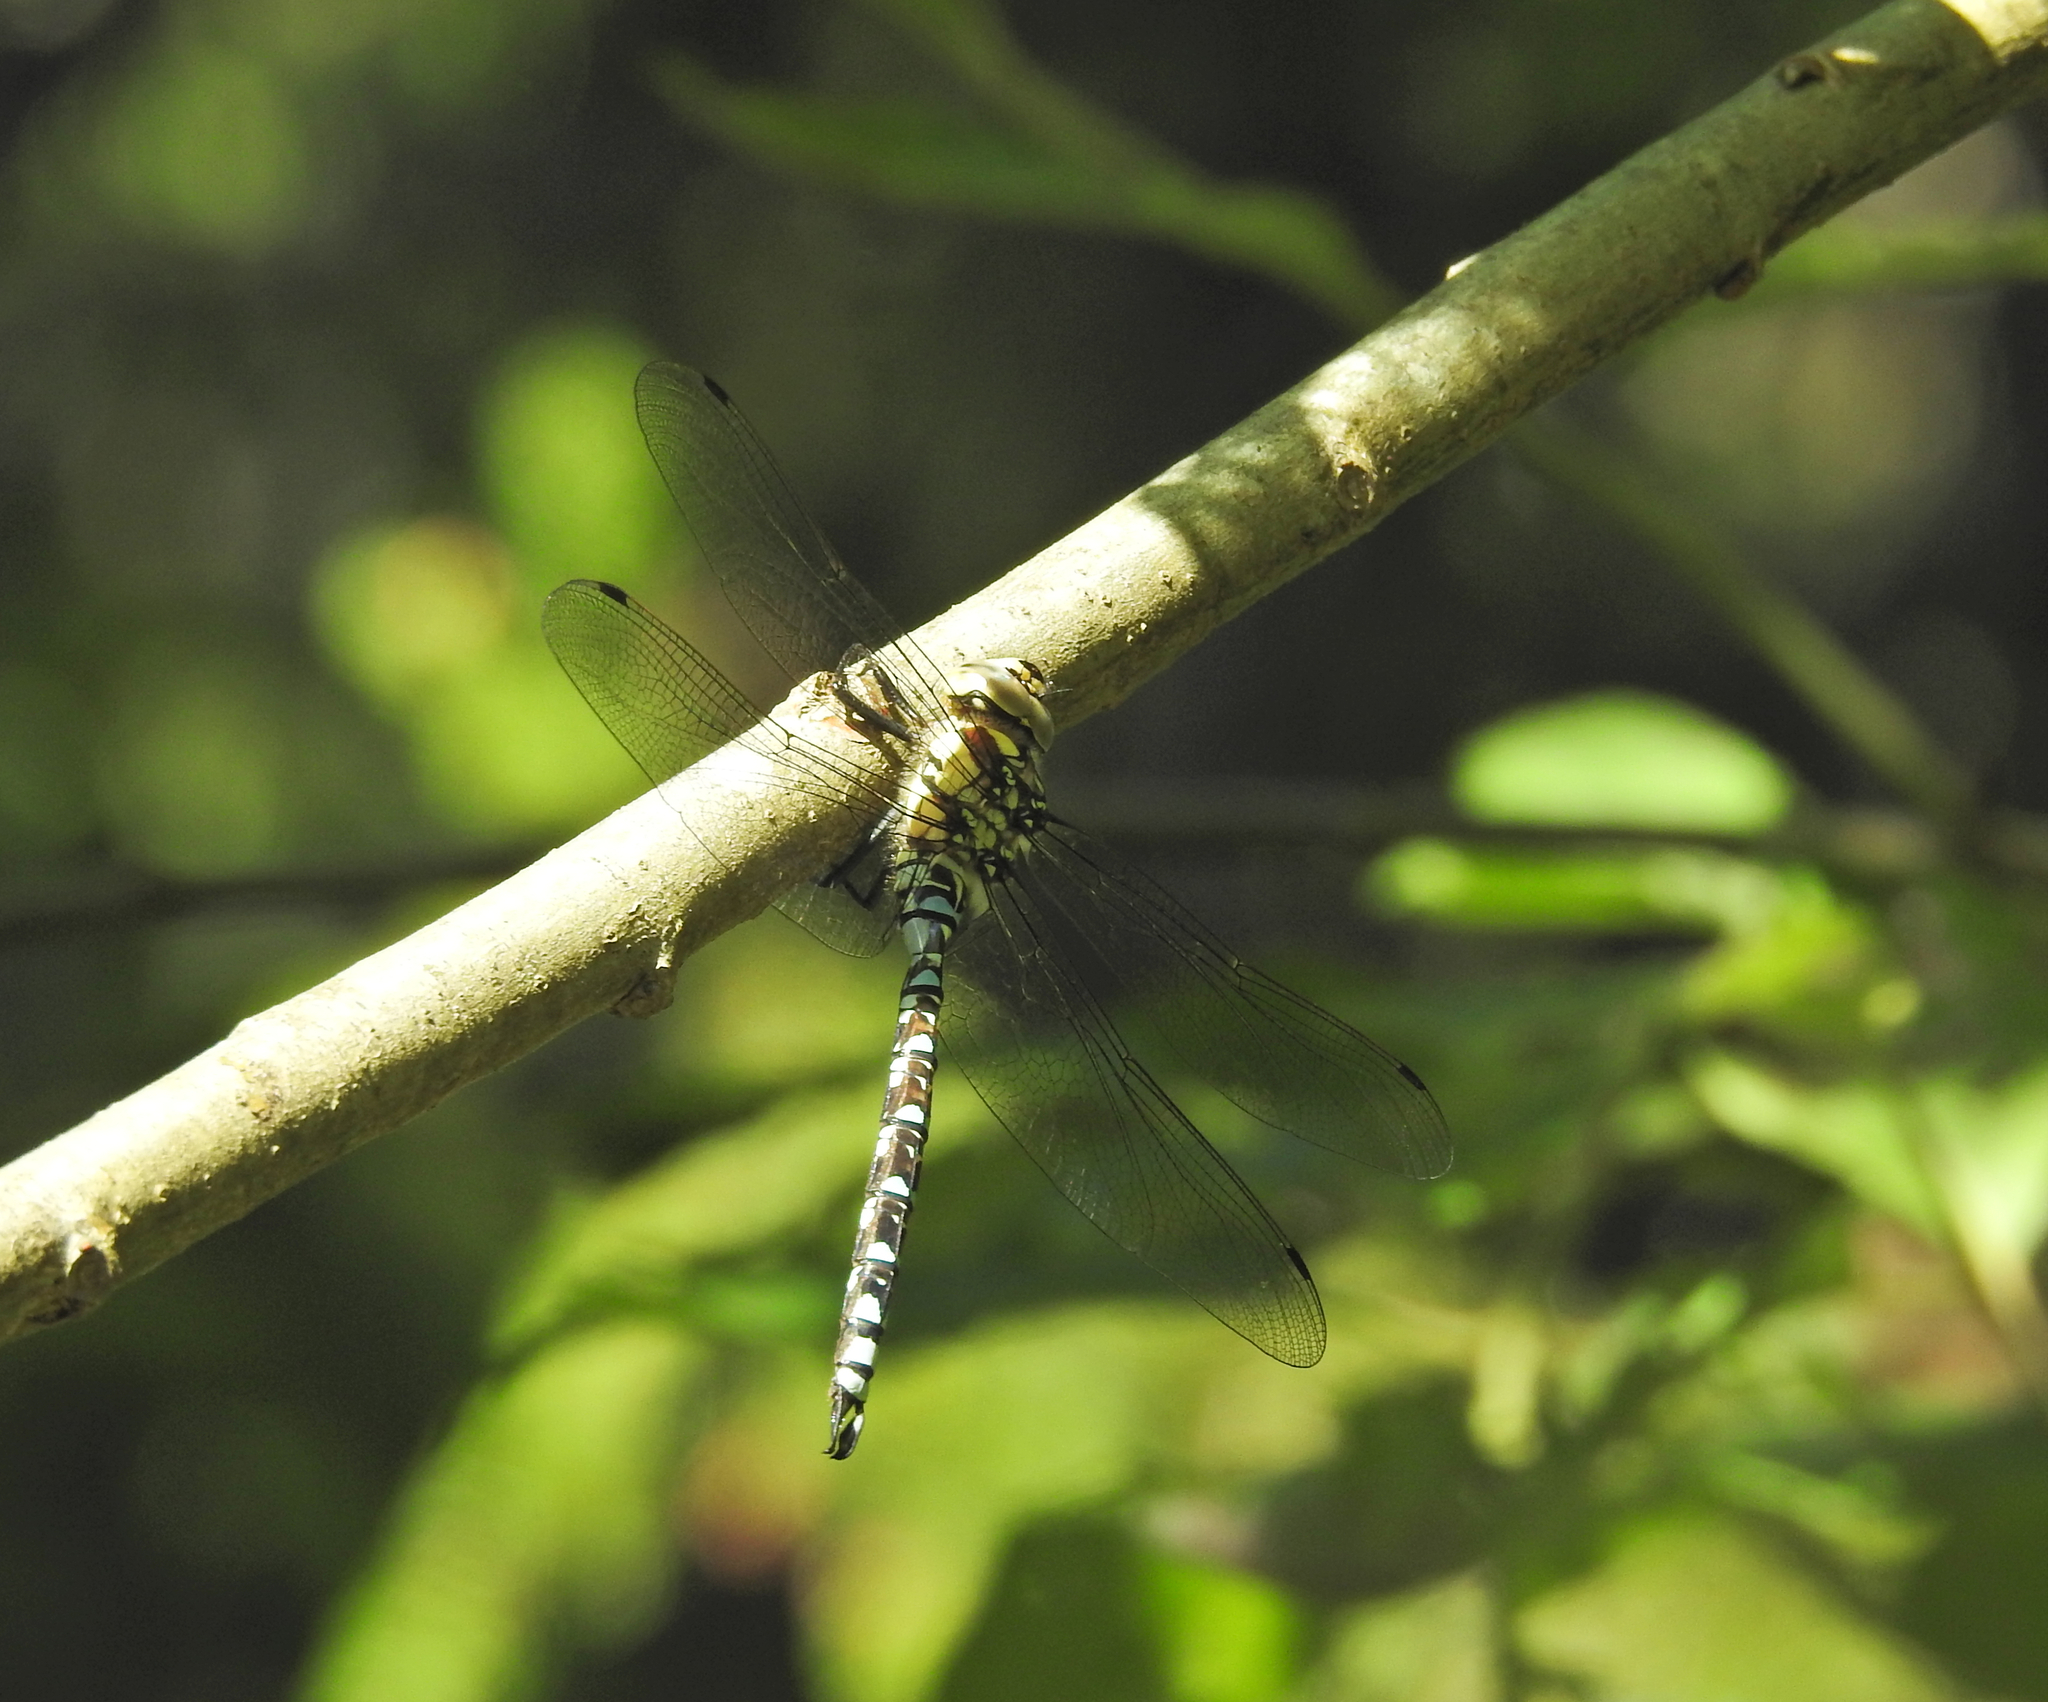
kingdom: Animalia
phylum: Arthropoda
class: Insecta
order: Odonata
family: Aeshnidae
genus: Aeshna
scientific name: Aeshna cyanea
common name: Southern hawker
